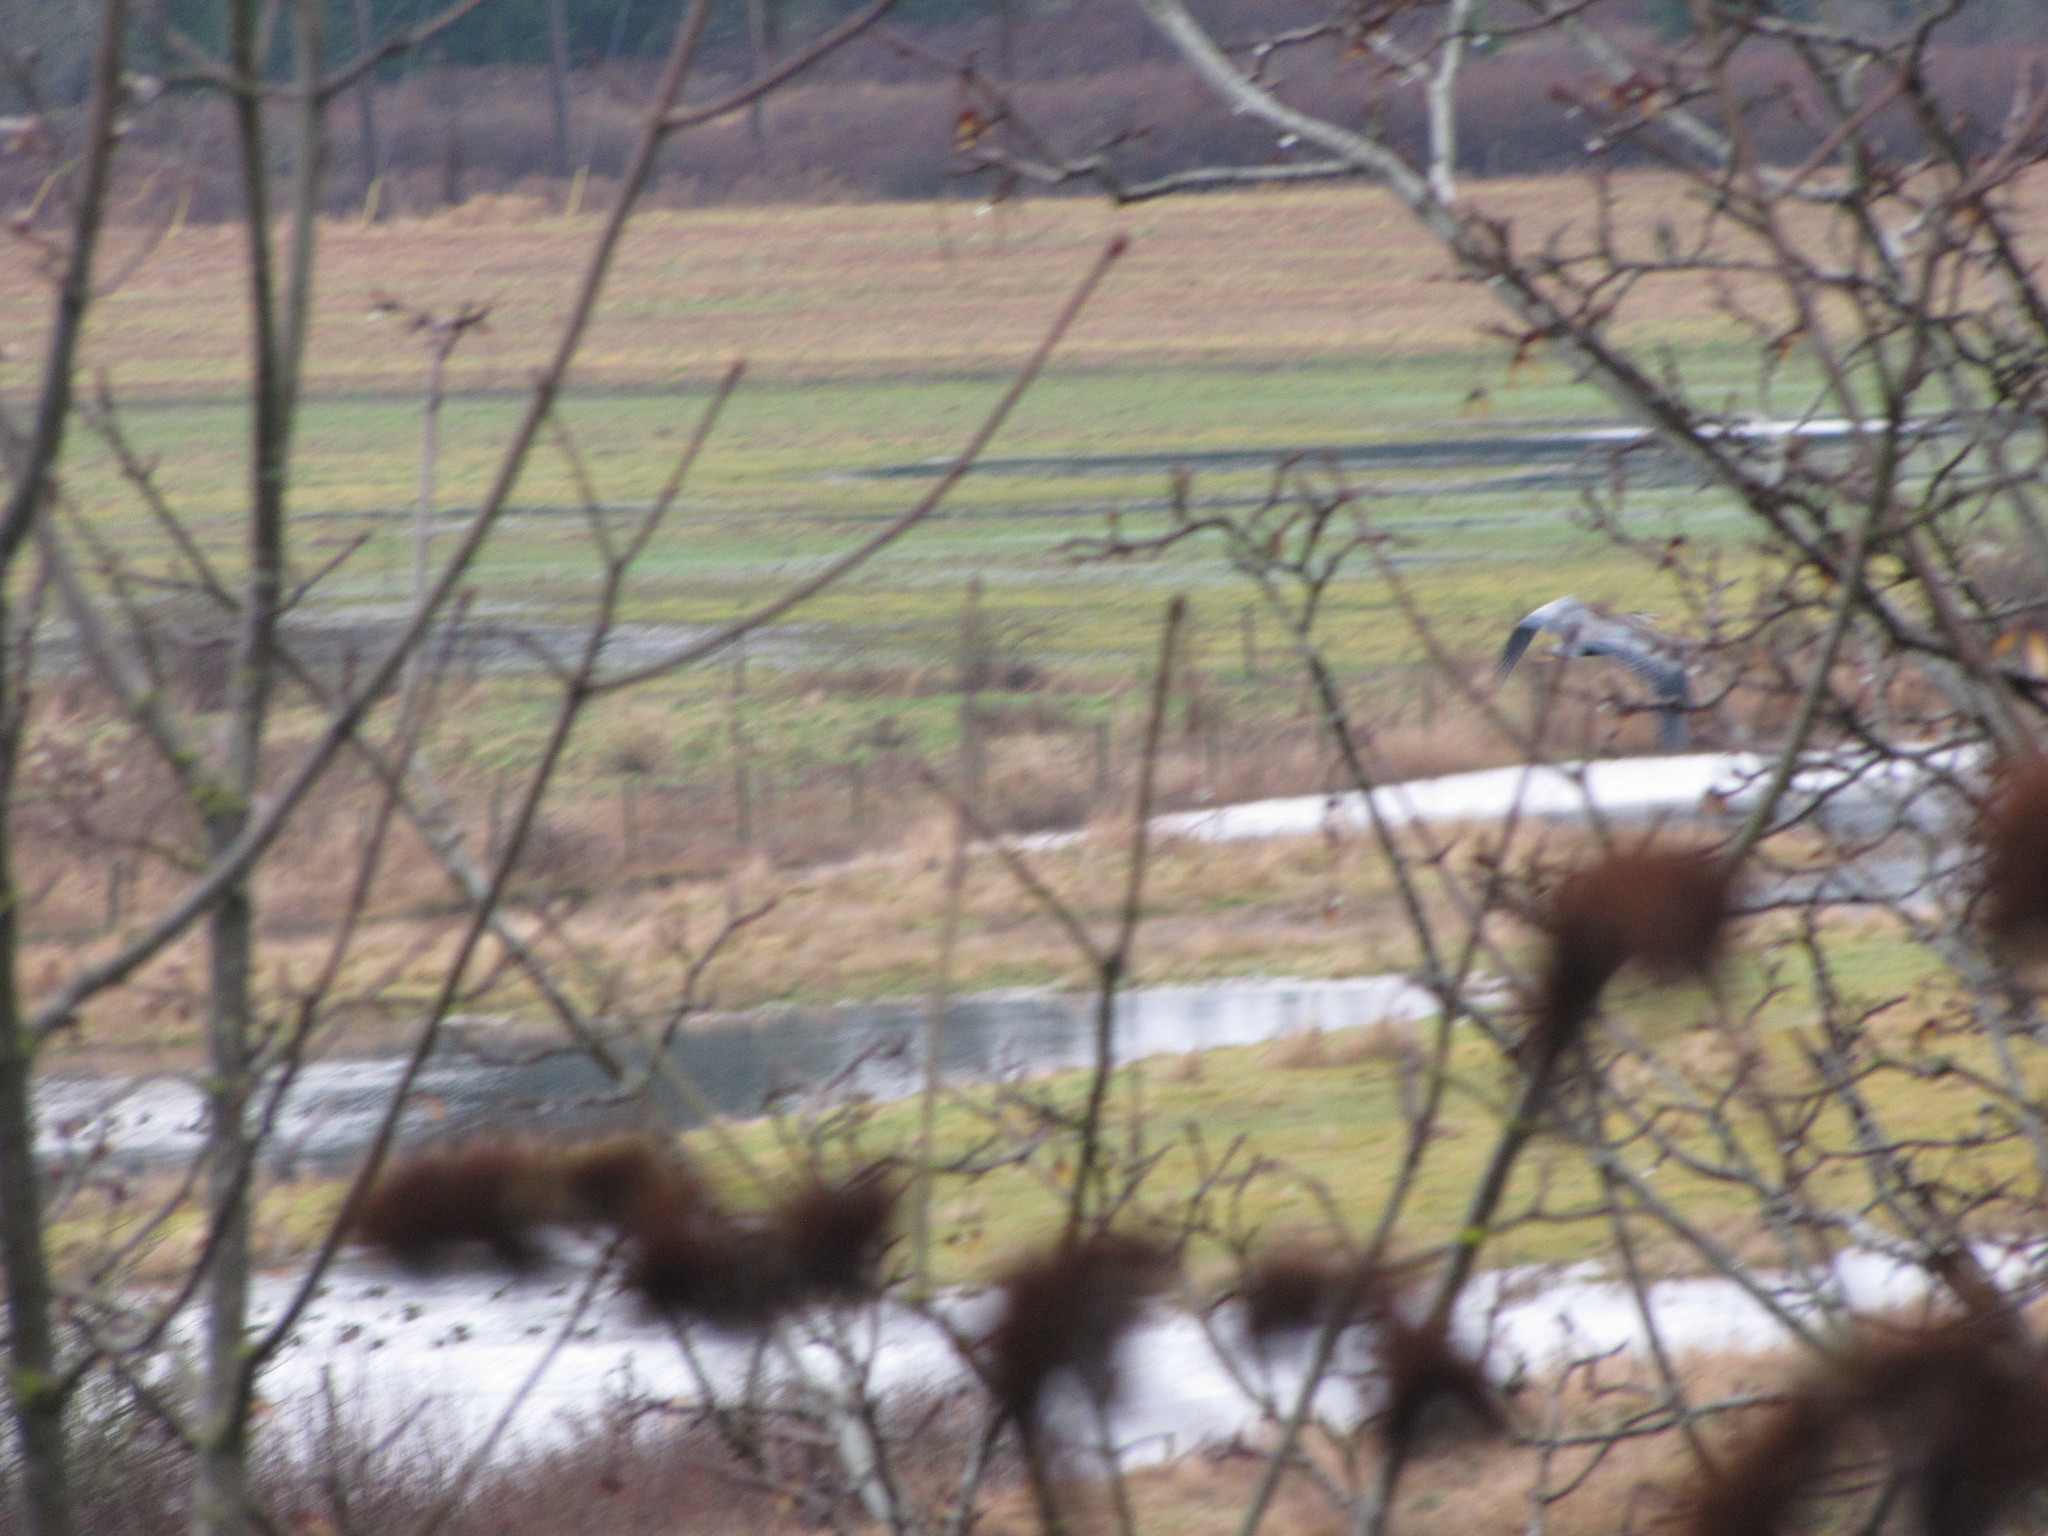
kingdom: Animalia
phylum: Chordata
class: Aves
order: Pelecaniformes
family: Ardeidae
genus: Ardea
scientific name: Ardea herodias
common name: Great blue heron
